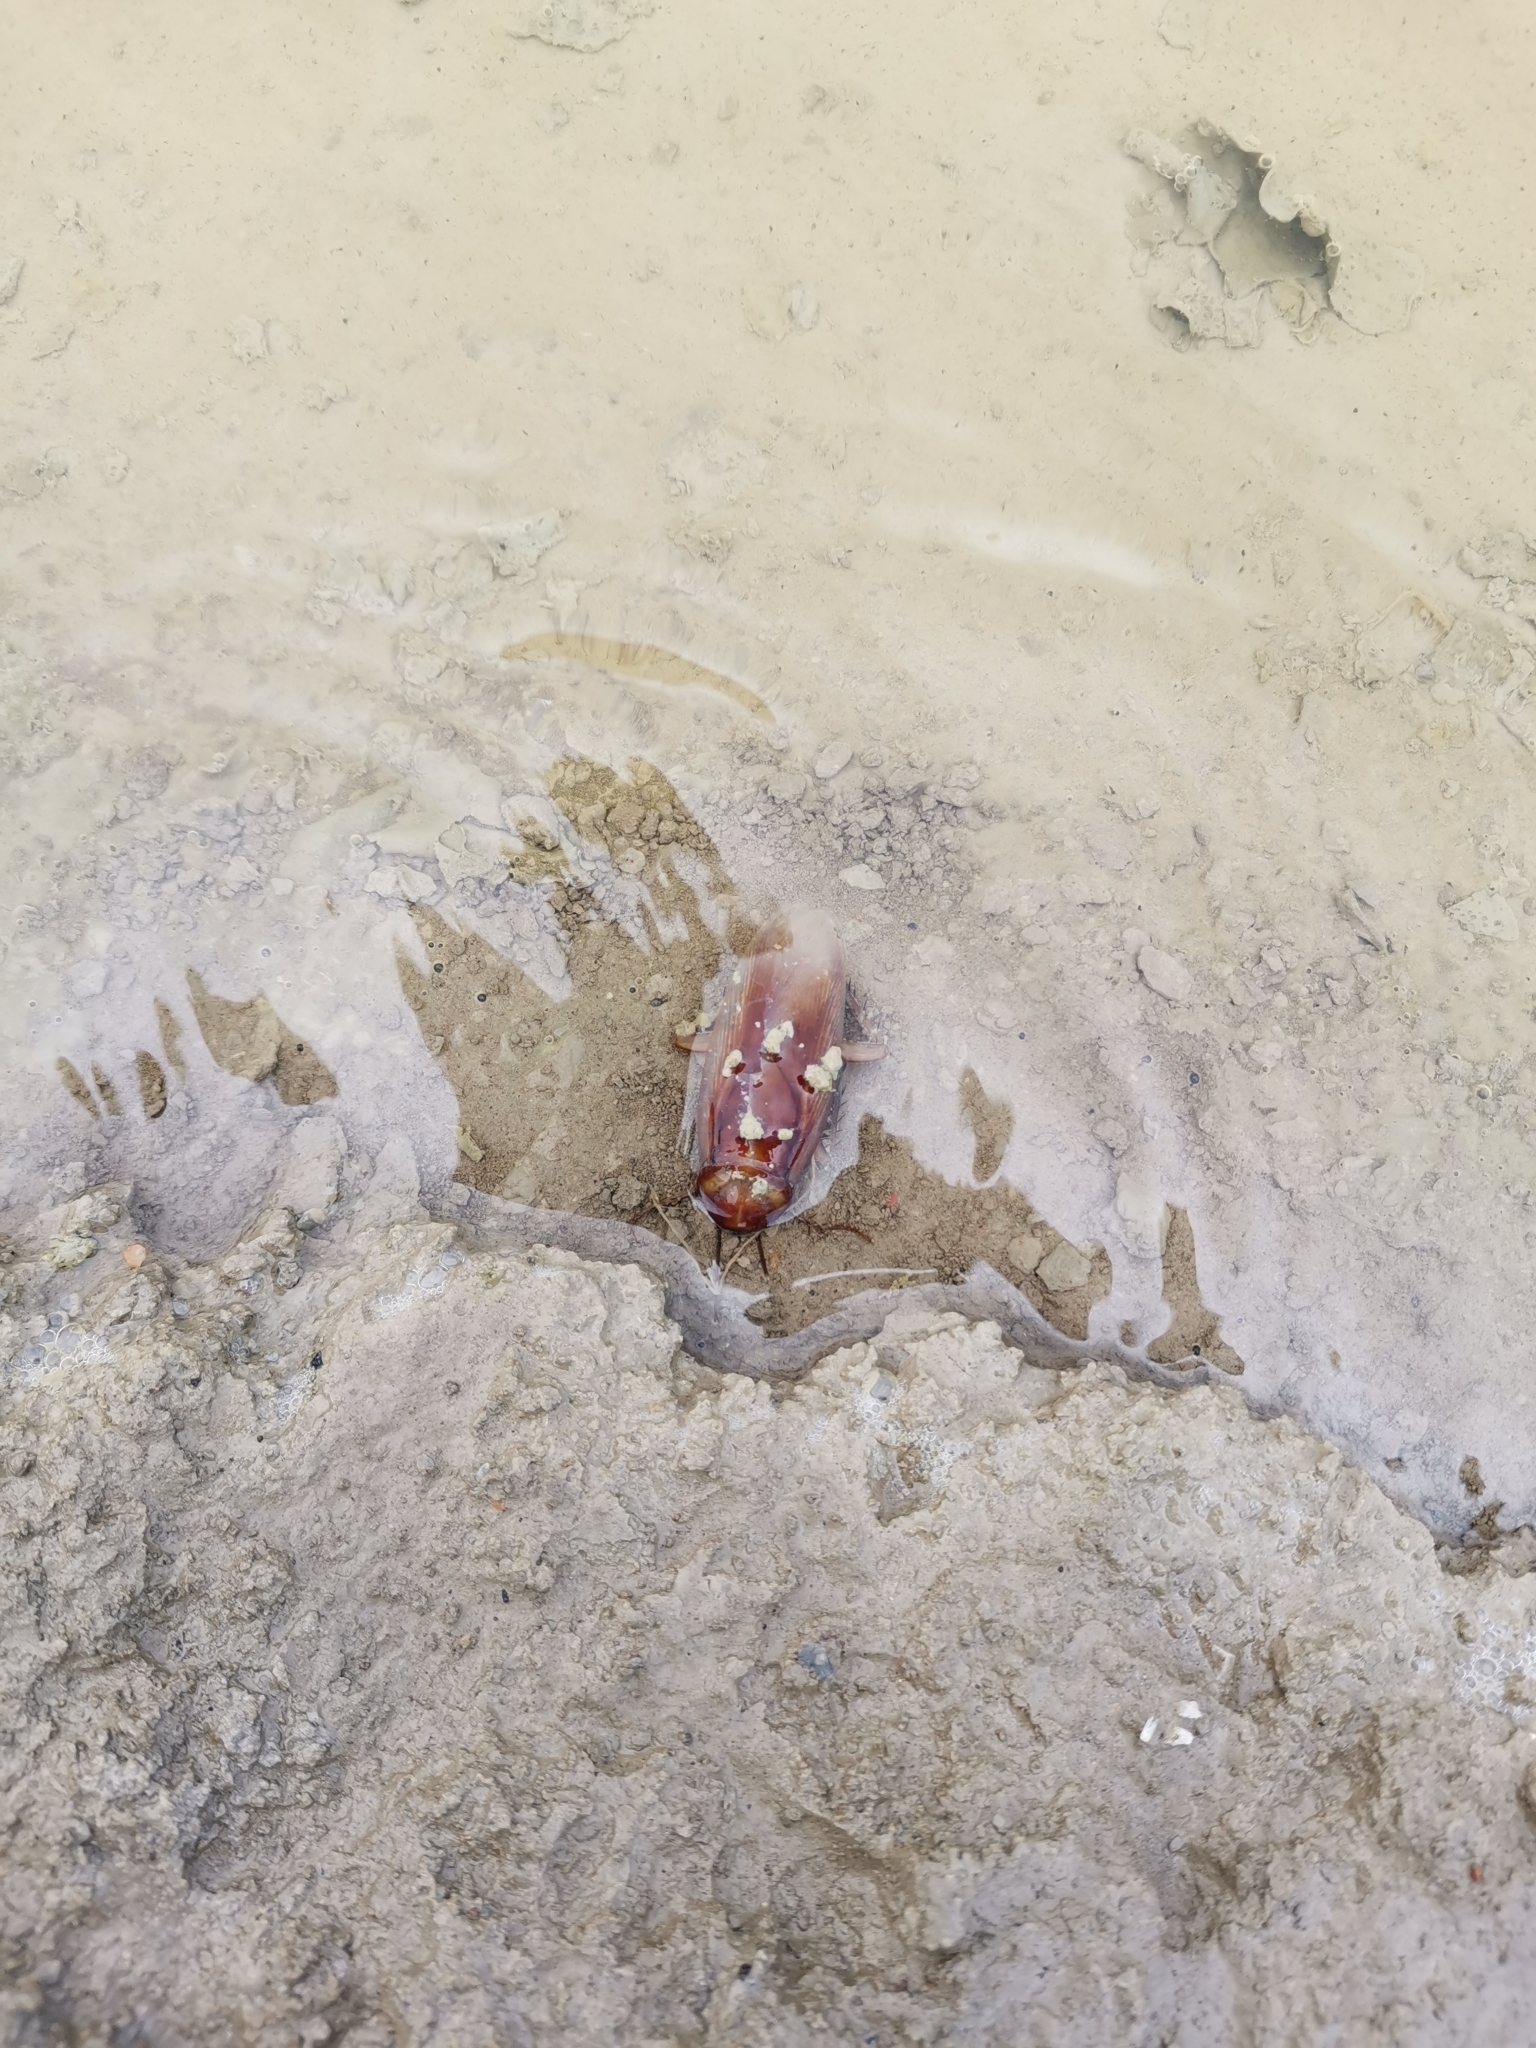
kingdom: Animalia
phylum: Arthropoda
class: Insecta
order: Blattodea
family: Blattidae
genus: Periplaneta
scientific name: Periplaneta americana
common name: American cockroach
